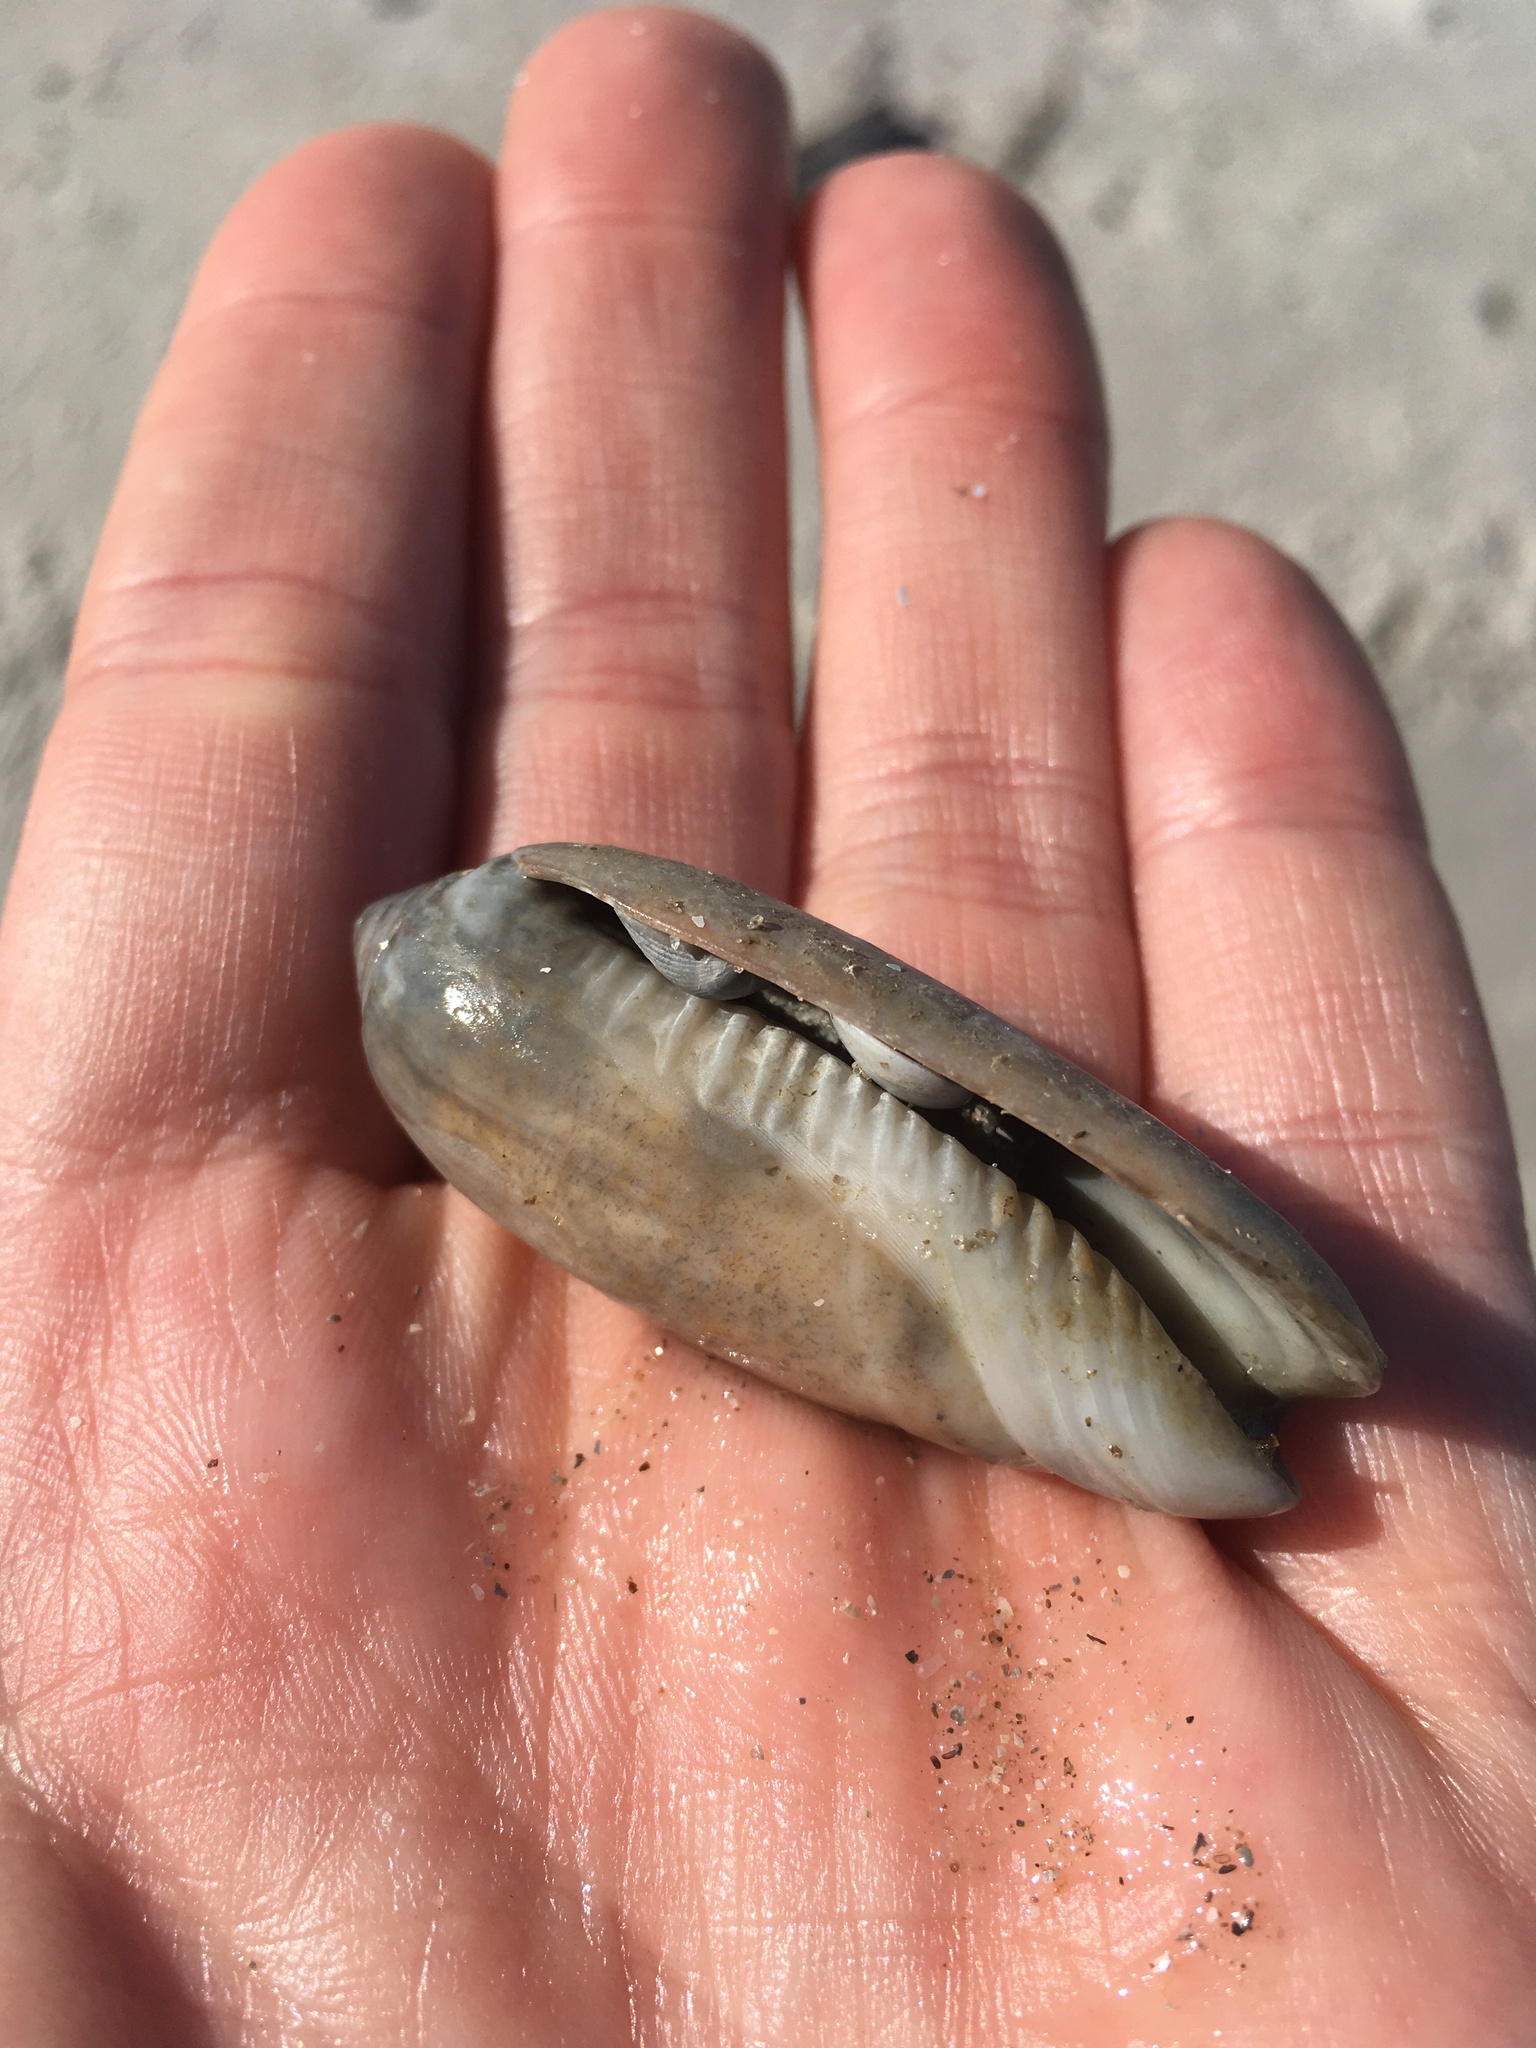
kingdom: Animalia
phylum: Mollusca
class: Gastropoda
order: Neogastropoda
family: Olividae
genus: Oliva
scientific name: Oliva sayana
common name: Lettered olive
